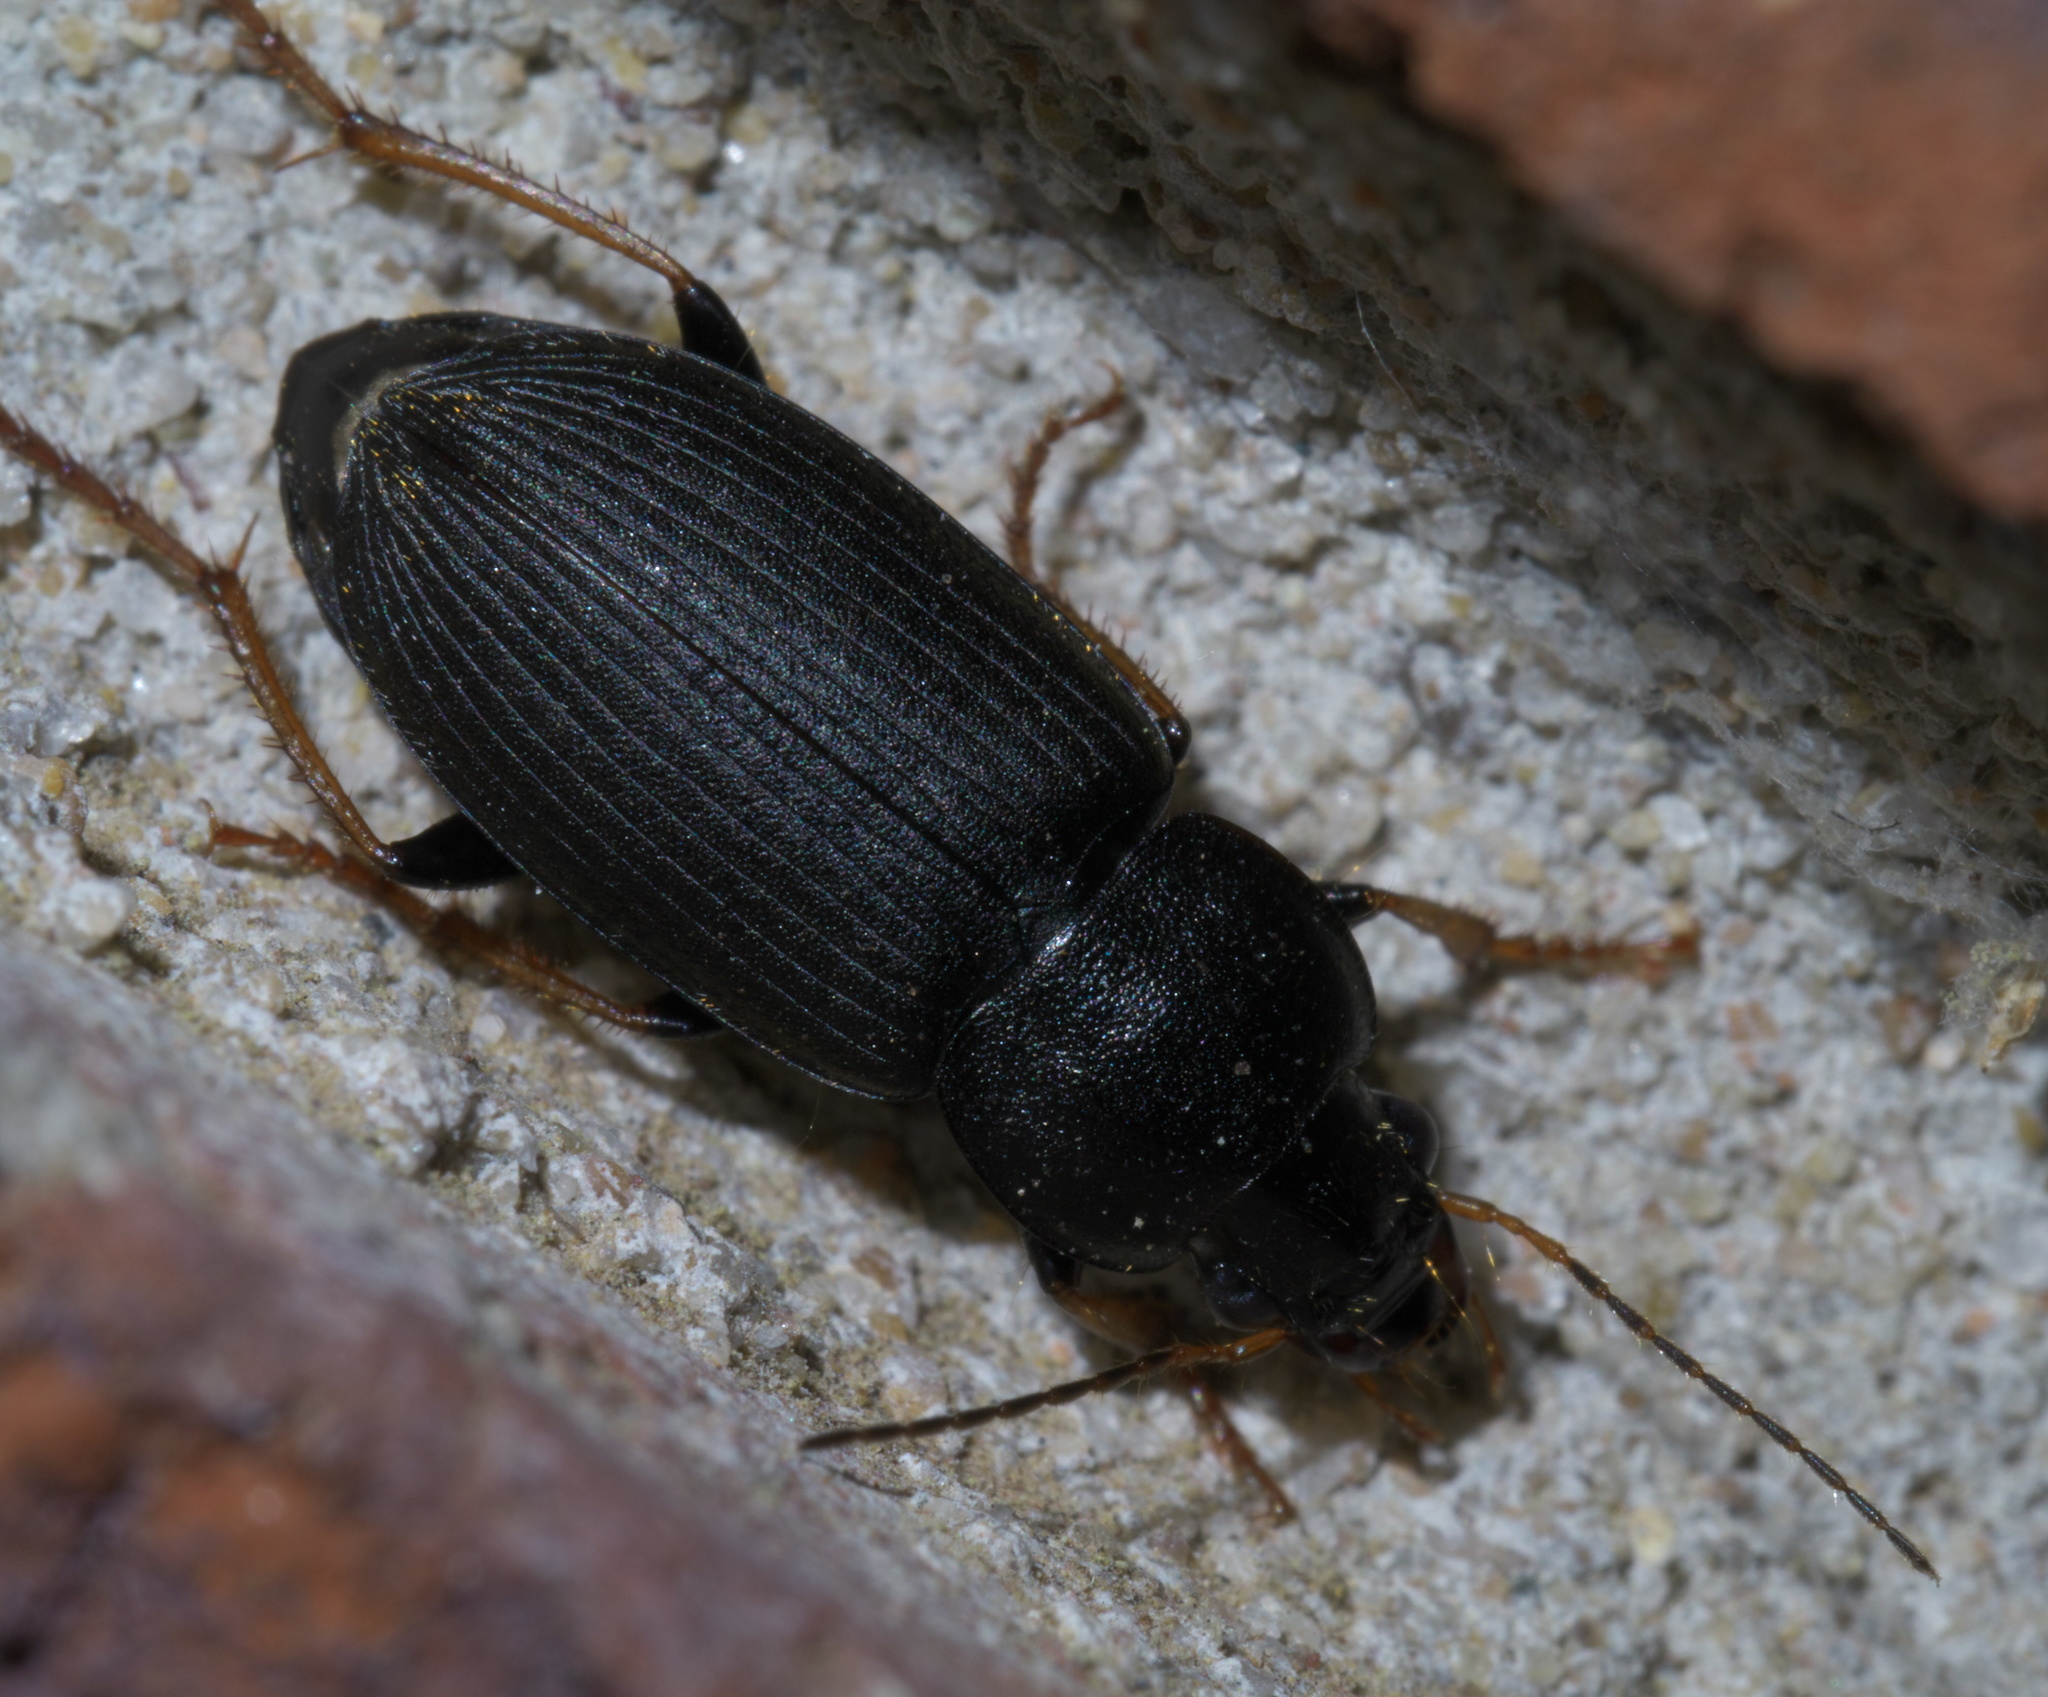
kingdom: Animalia
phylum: Arthropoda
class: Insecta
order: Coleoptera
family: Carabidae
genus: Amphasia
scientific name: Amphasia sericea
